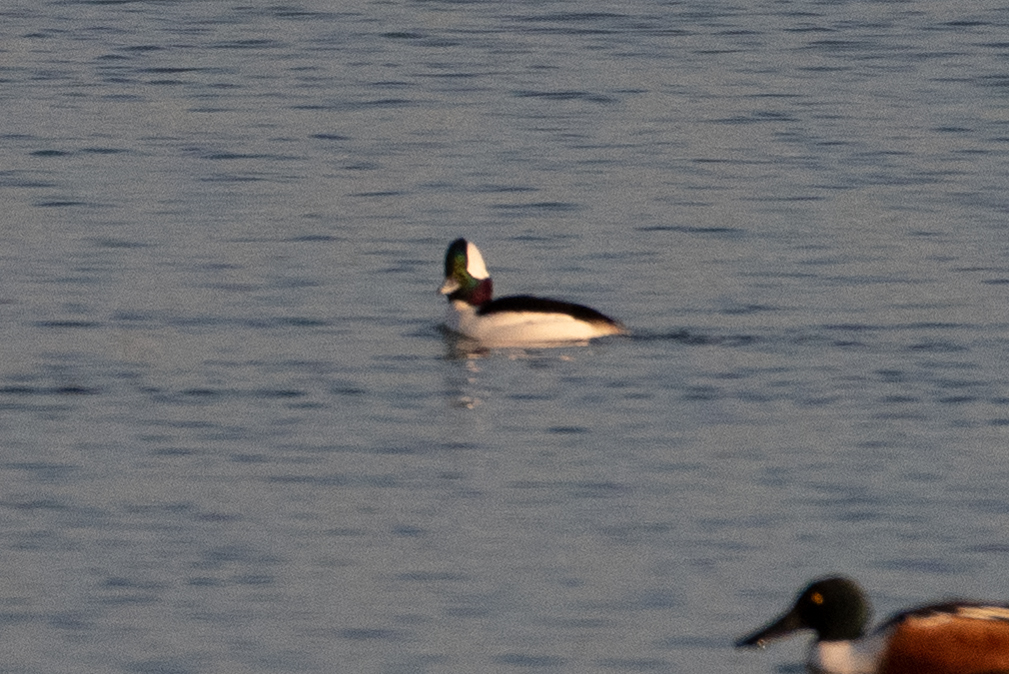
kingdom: Animalia
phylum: Chordata
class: Aves
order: Anseriformes
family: Anatidae
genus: Bucephala
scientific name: Bucephala albeola
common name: Bufflehead
